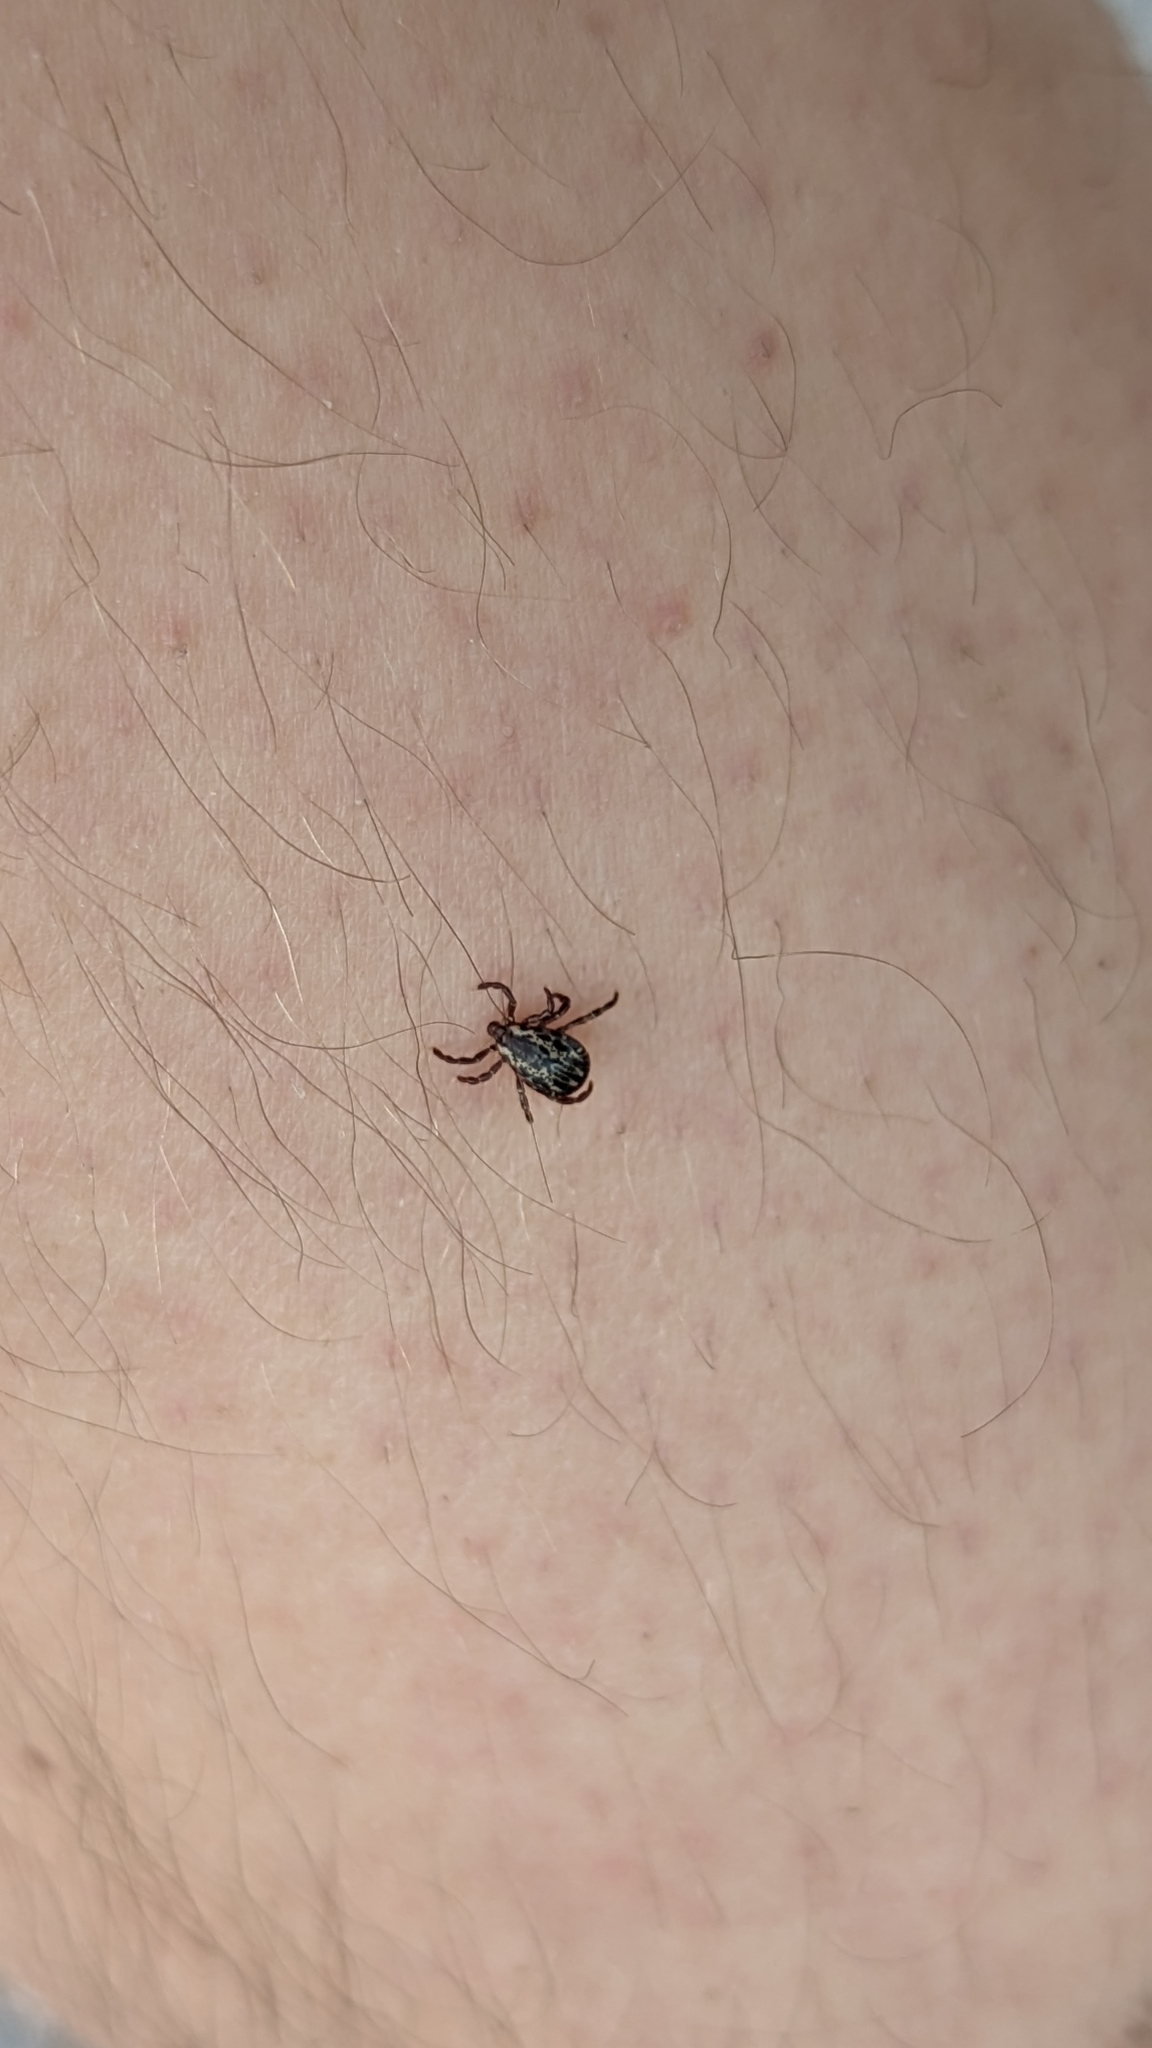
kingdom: Animalia
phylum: Arthropoda
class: Arachnida
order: Ixodida
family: Ixodidae
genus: Dermacentor
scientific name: Dermacentor variabilis
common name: American dog tick
